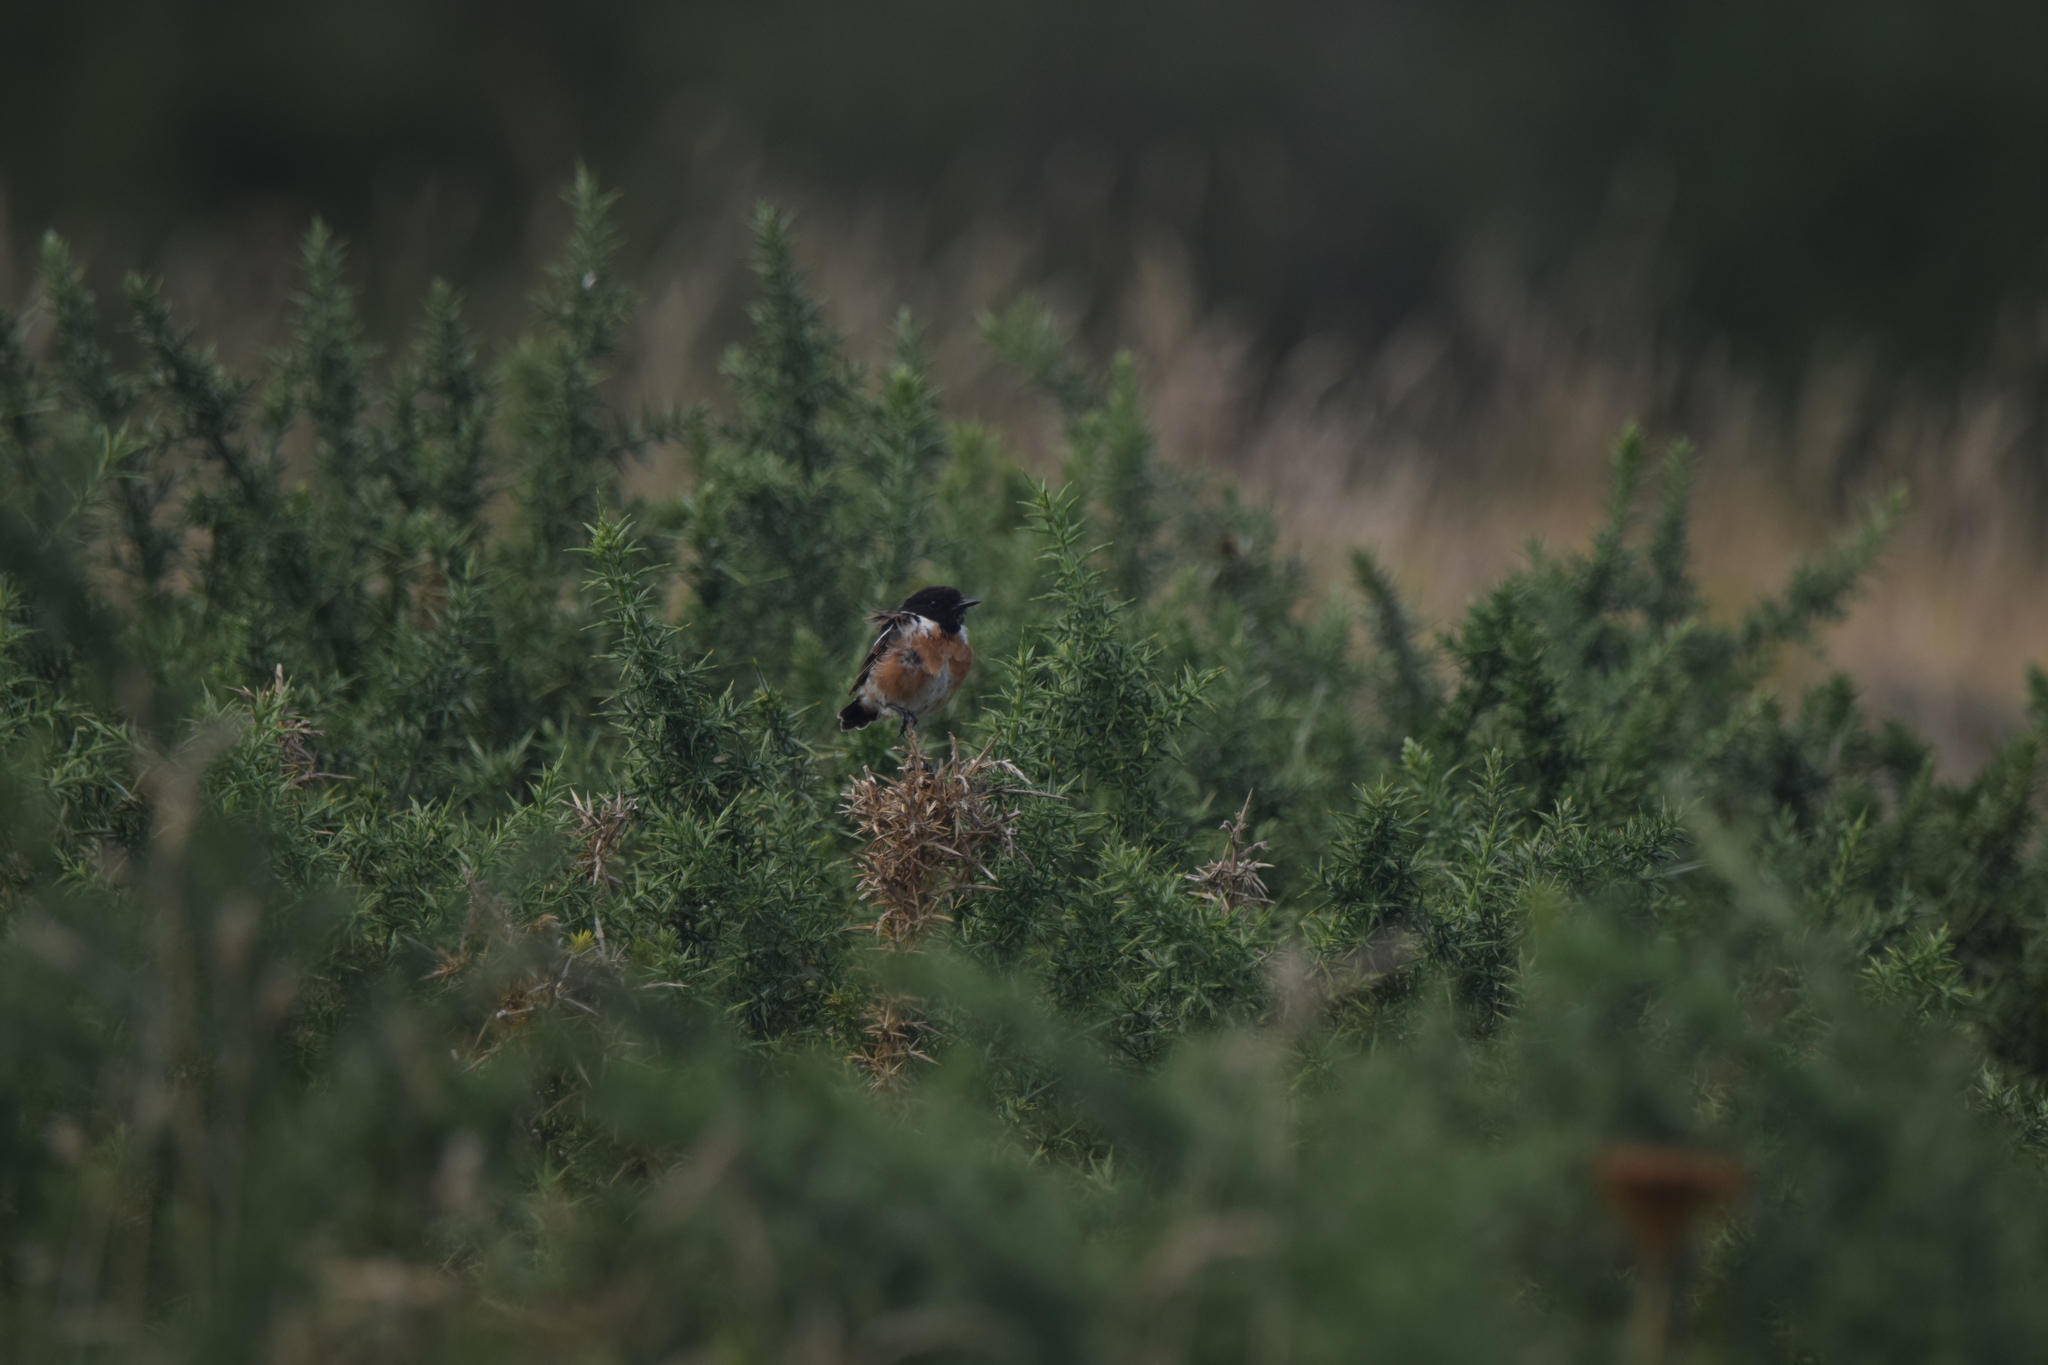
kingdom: Animalia
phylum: Chordata
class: Aves
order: Passeriformes
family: Muscicapidae
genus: Saxicola
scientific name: Saxicola rubicola
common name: European stonechat
